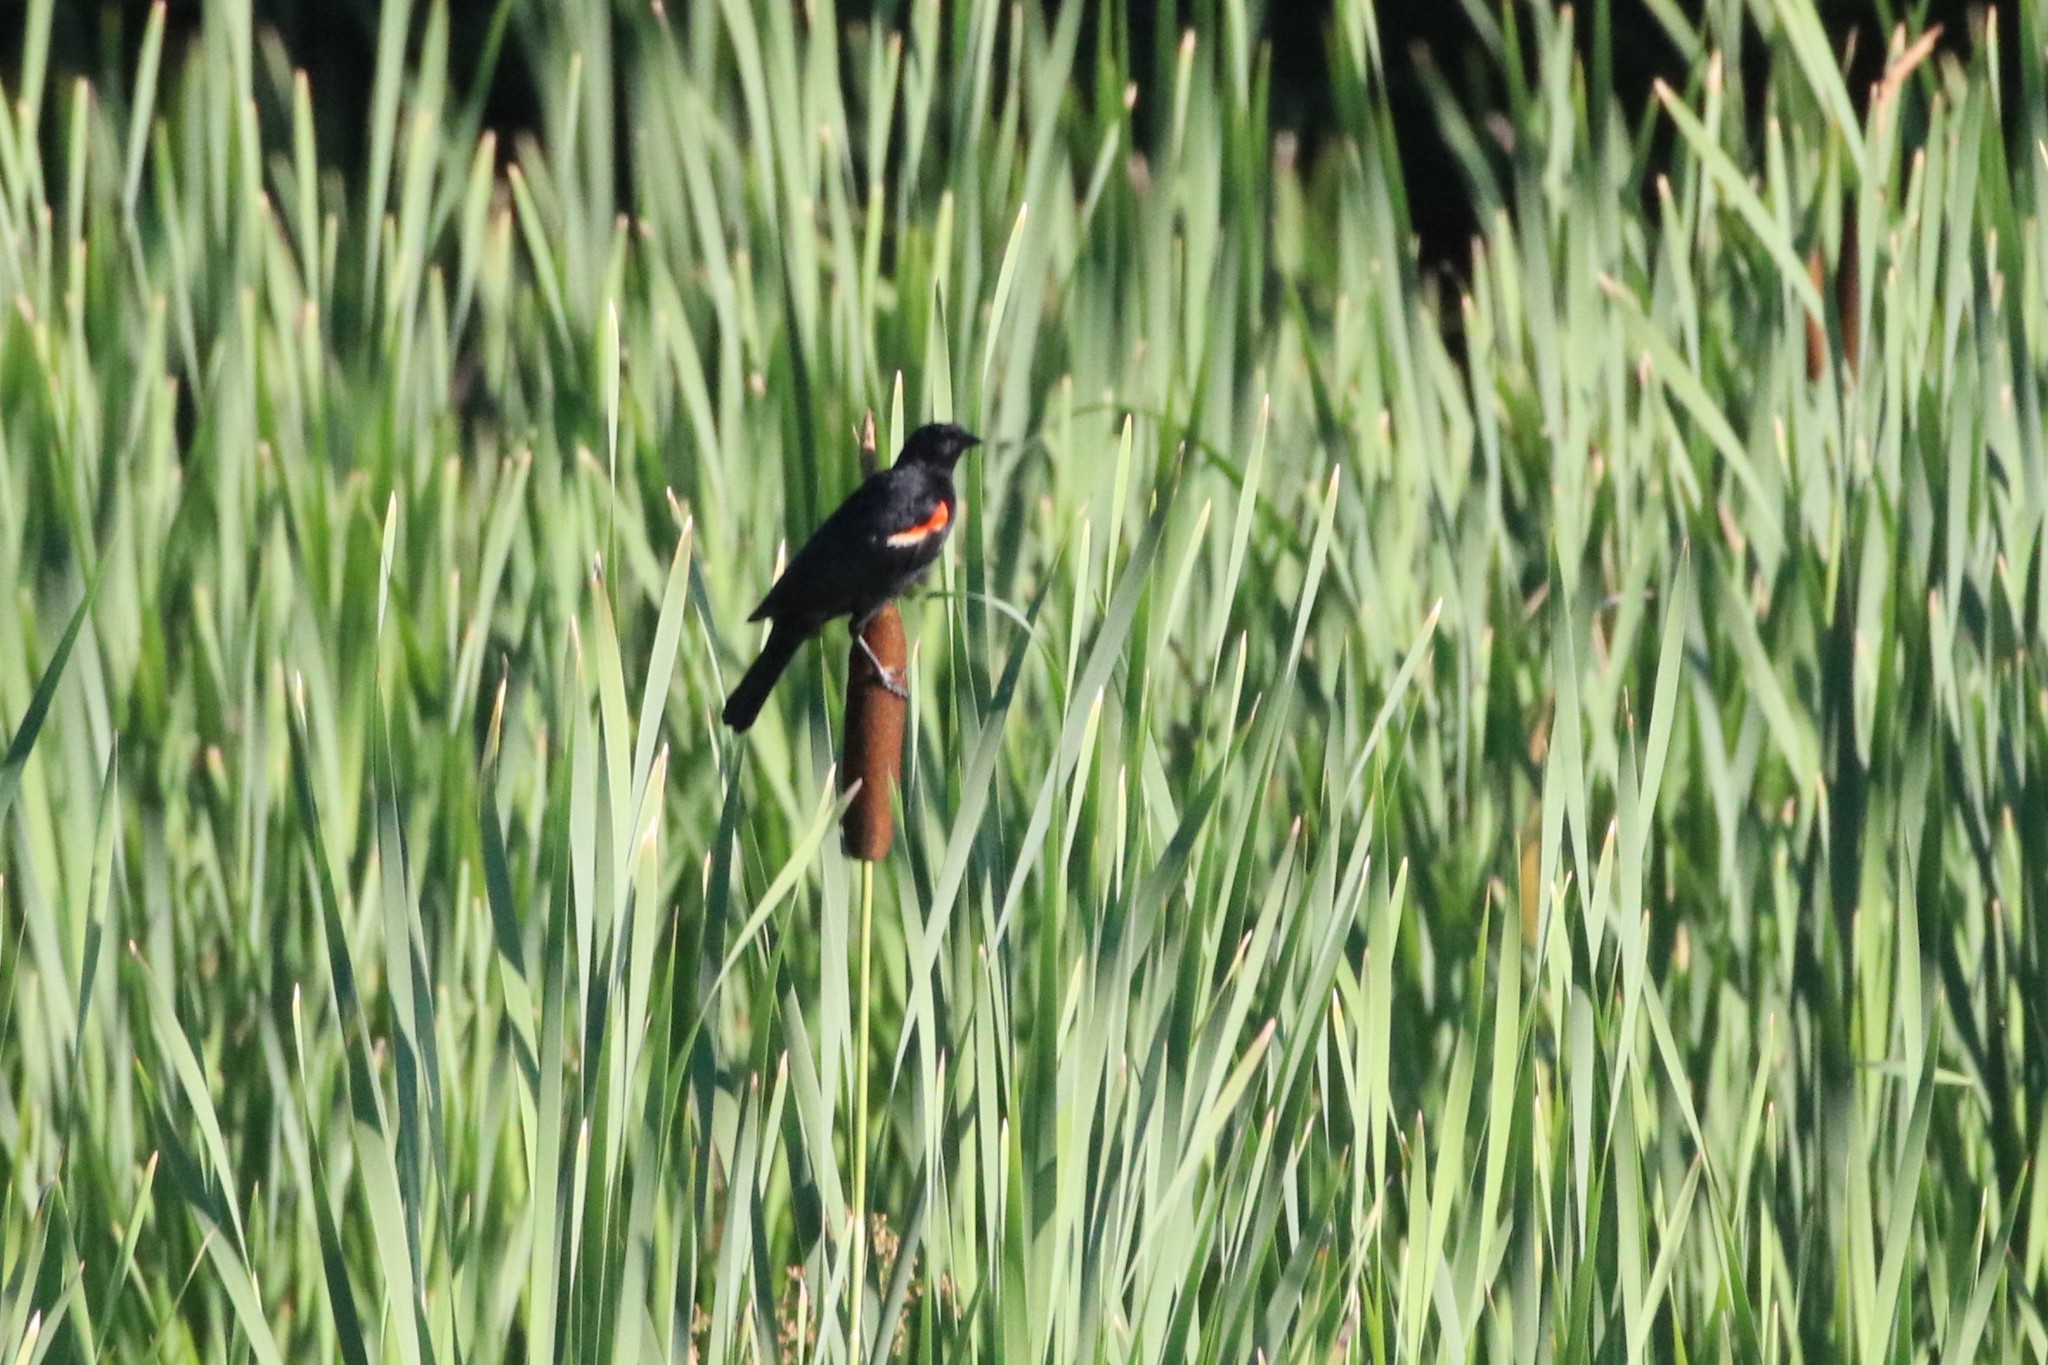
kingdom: Animalia
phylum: Chordata
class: Aves
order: Passeriformes
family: Icteridae
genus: Agelaius
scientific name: Agelaius phoeniceus
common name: Red-winged blackbird
